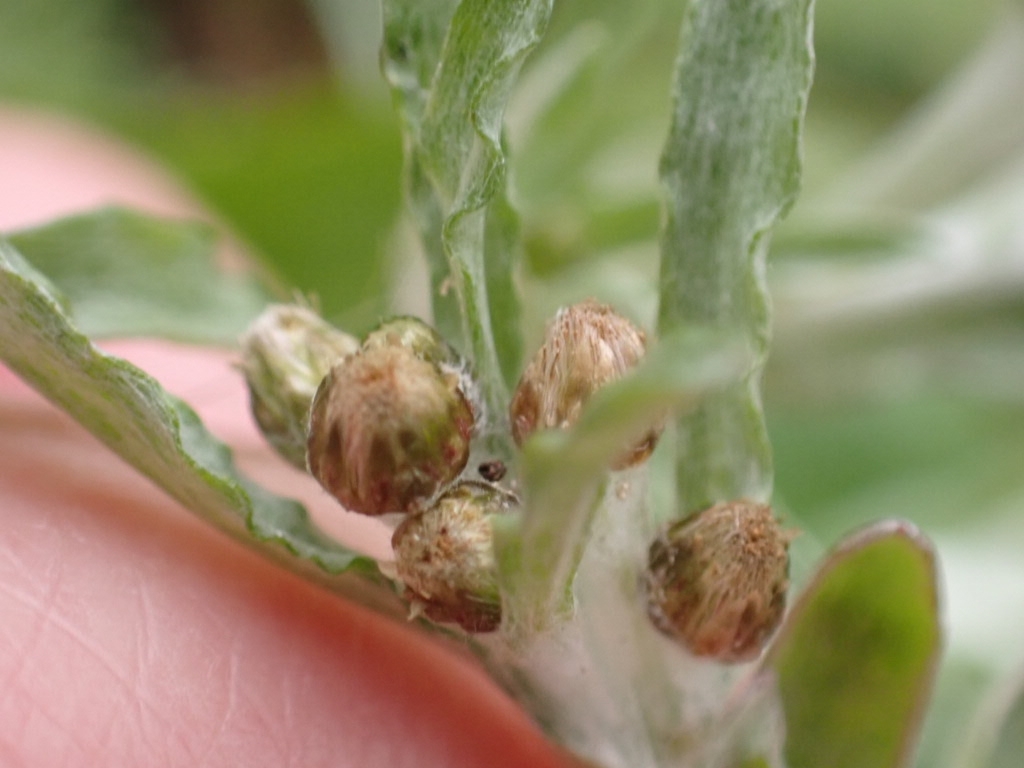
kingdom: Plantae
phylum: Tracheophyta
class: Magnoliopsida
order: Asterales
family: Asteraceae
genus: Gnaphalium
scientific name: Gnaphalium uliginosum
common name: Marsh cudweed
